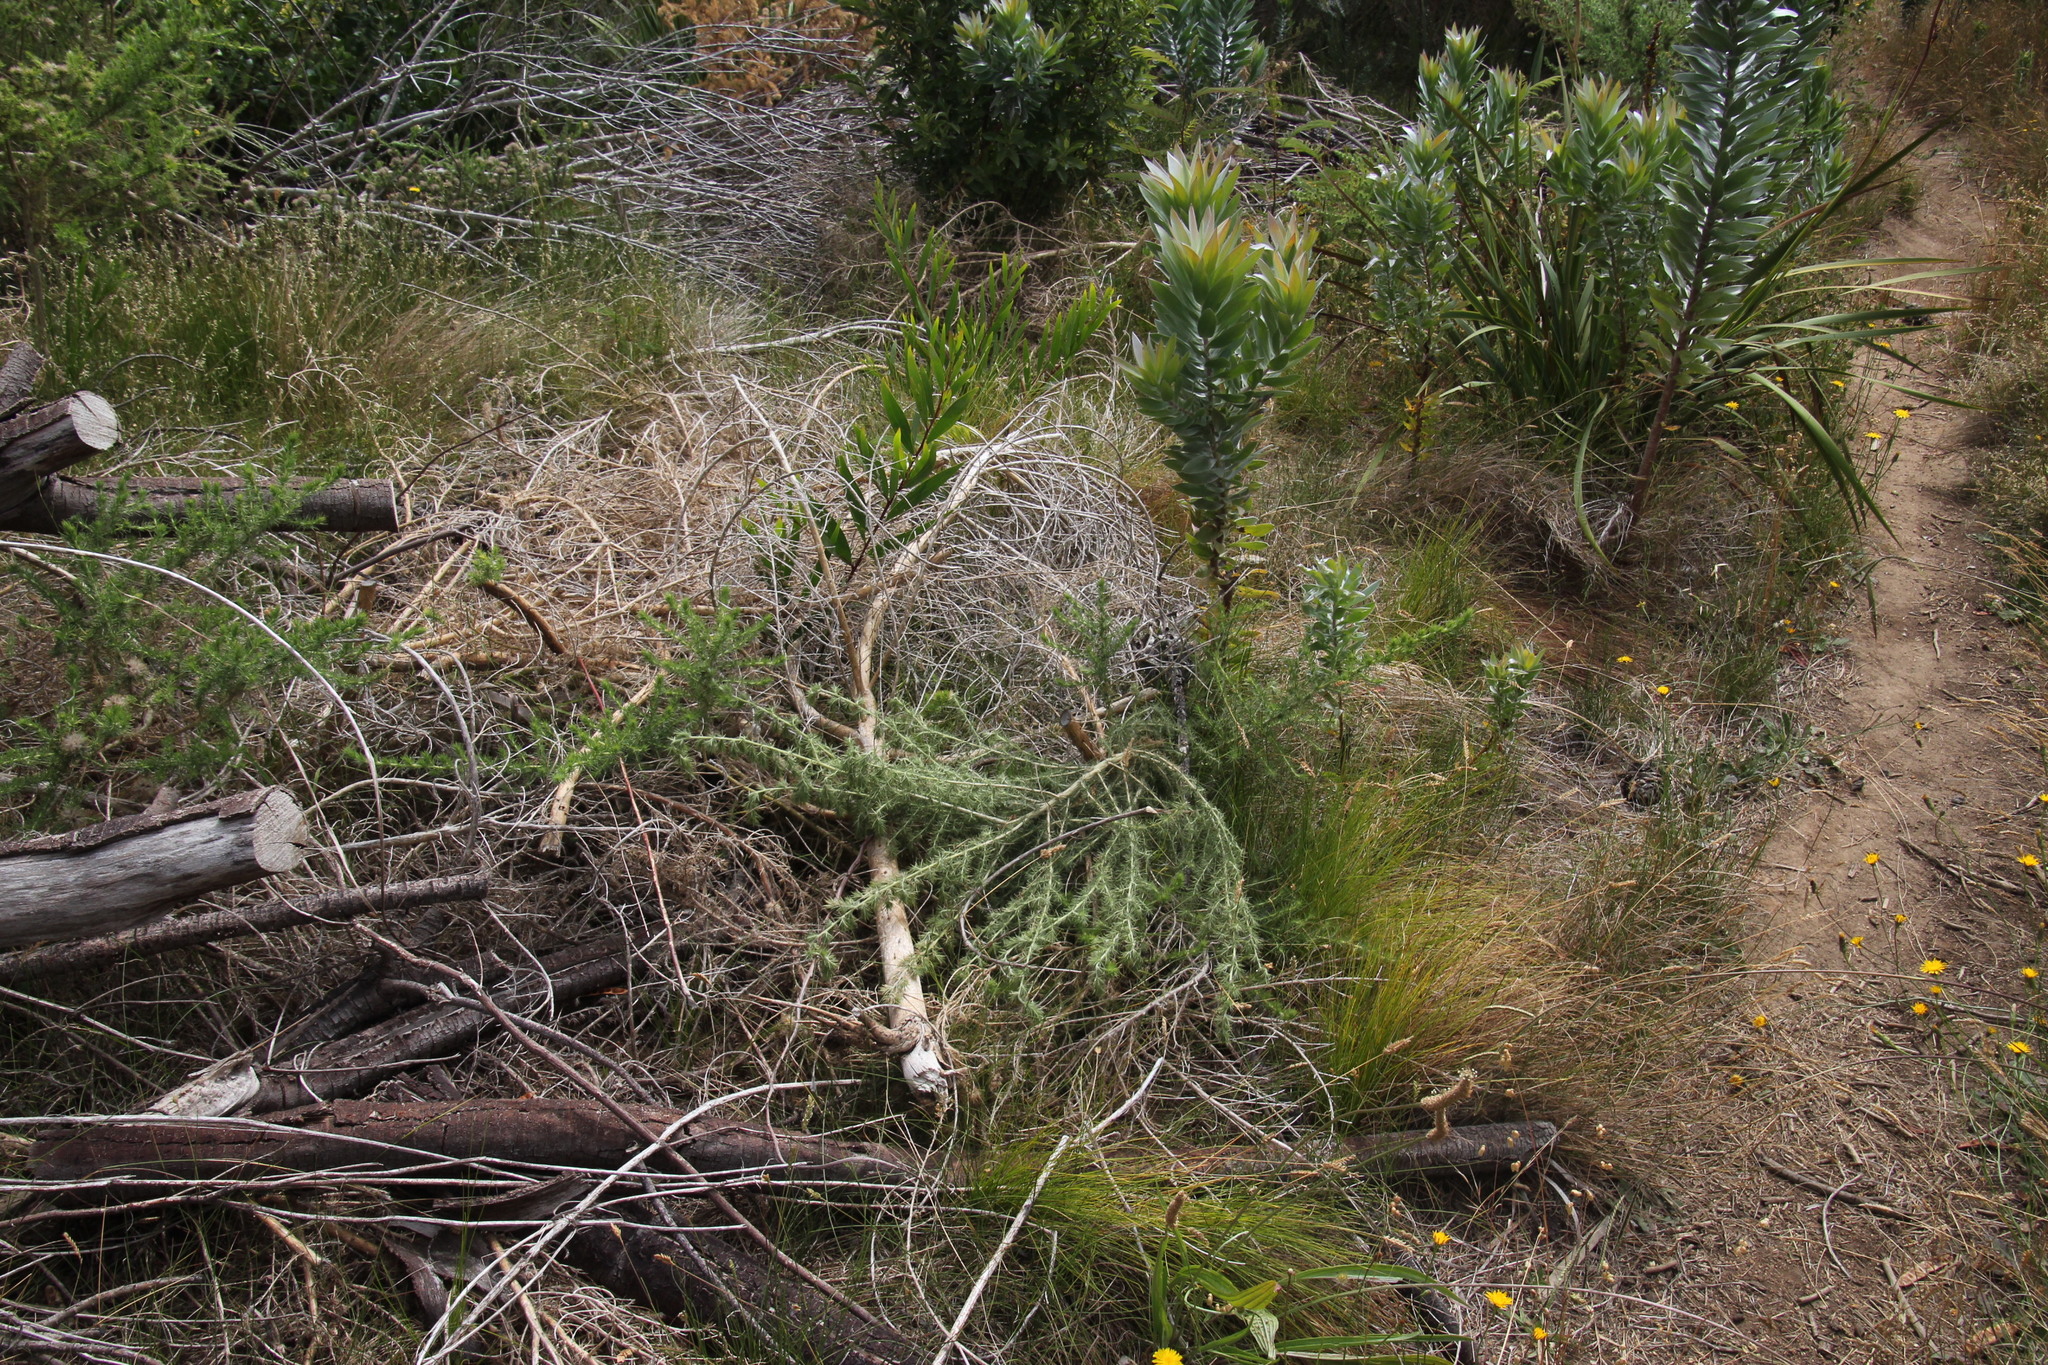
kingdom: Plantae
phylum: Tracheophyta
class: Magnoliopsida
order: Fabales
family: Fabaceae
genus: Aspalathus
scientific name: Aspalathus chenopoda
